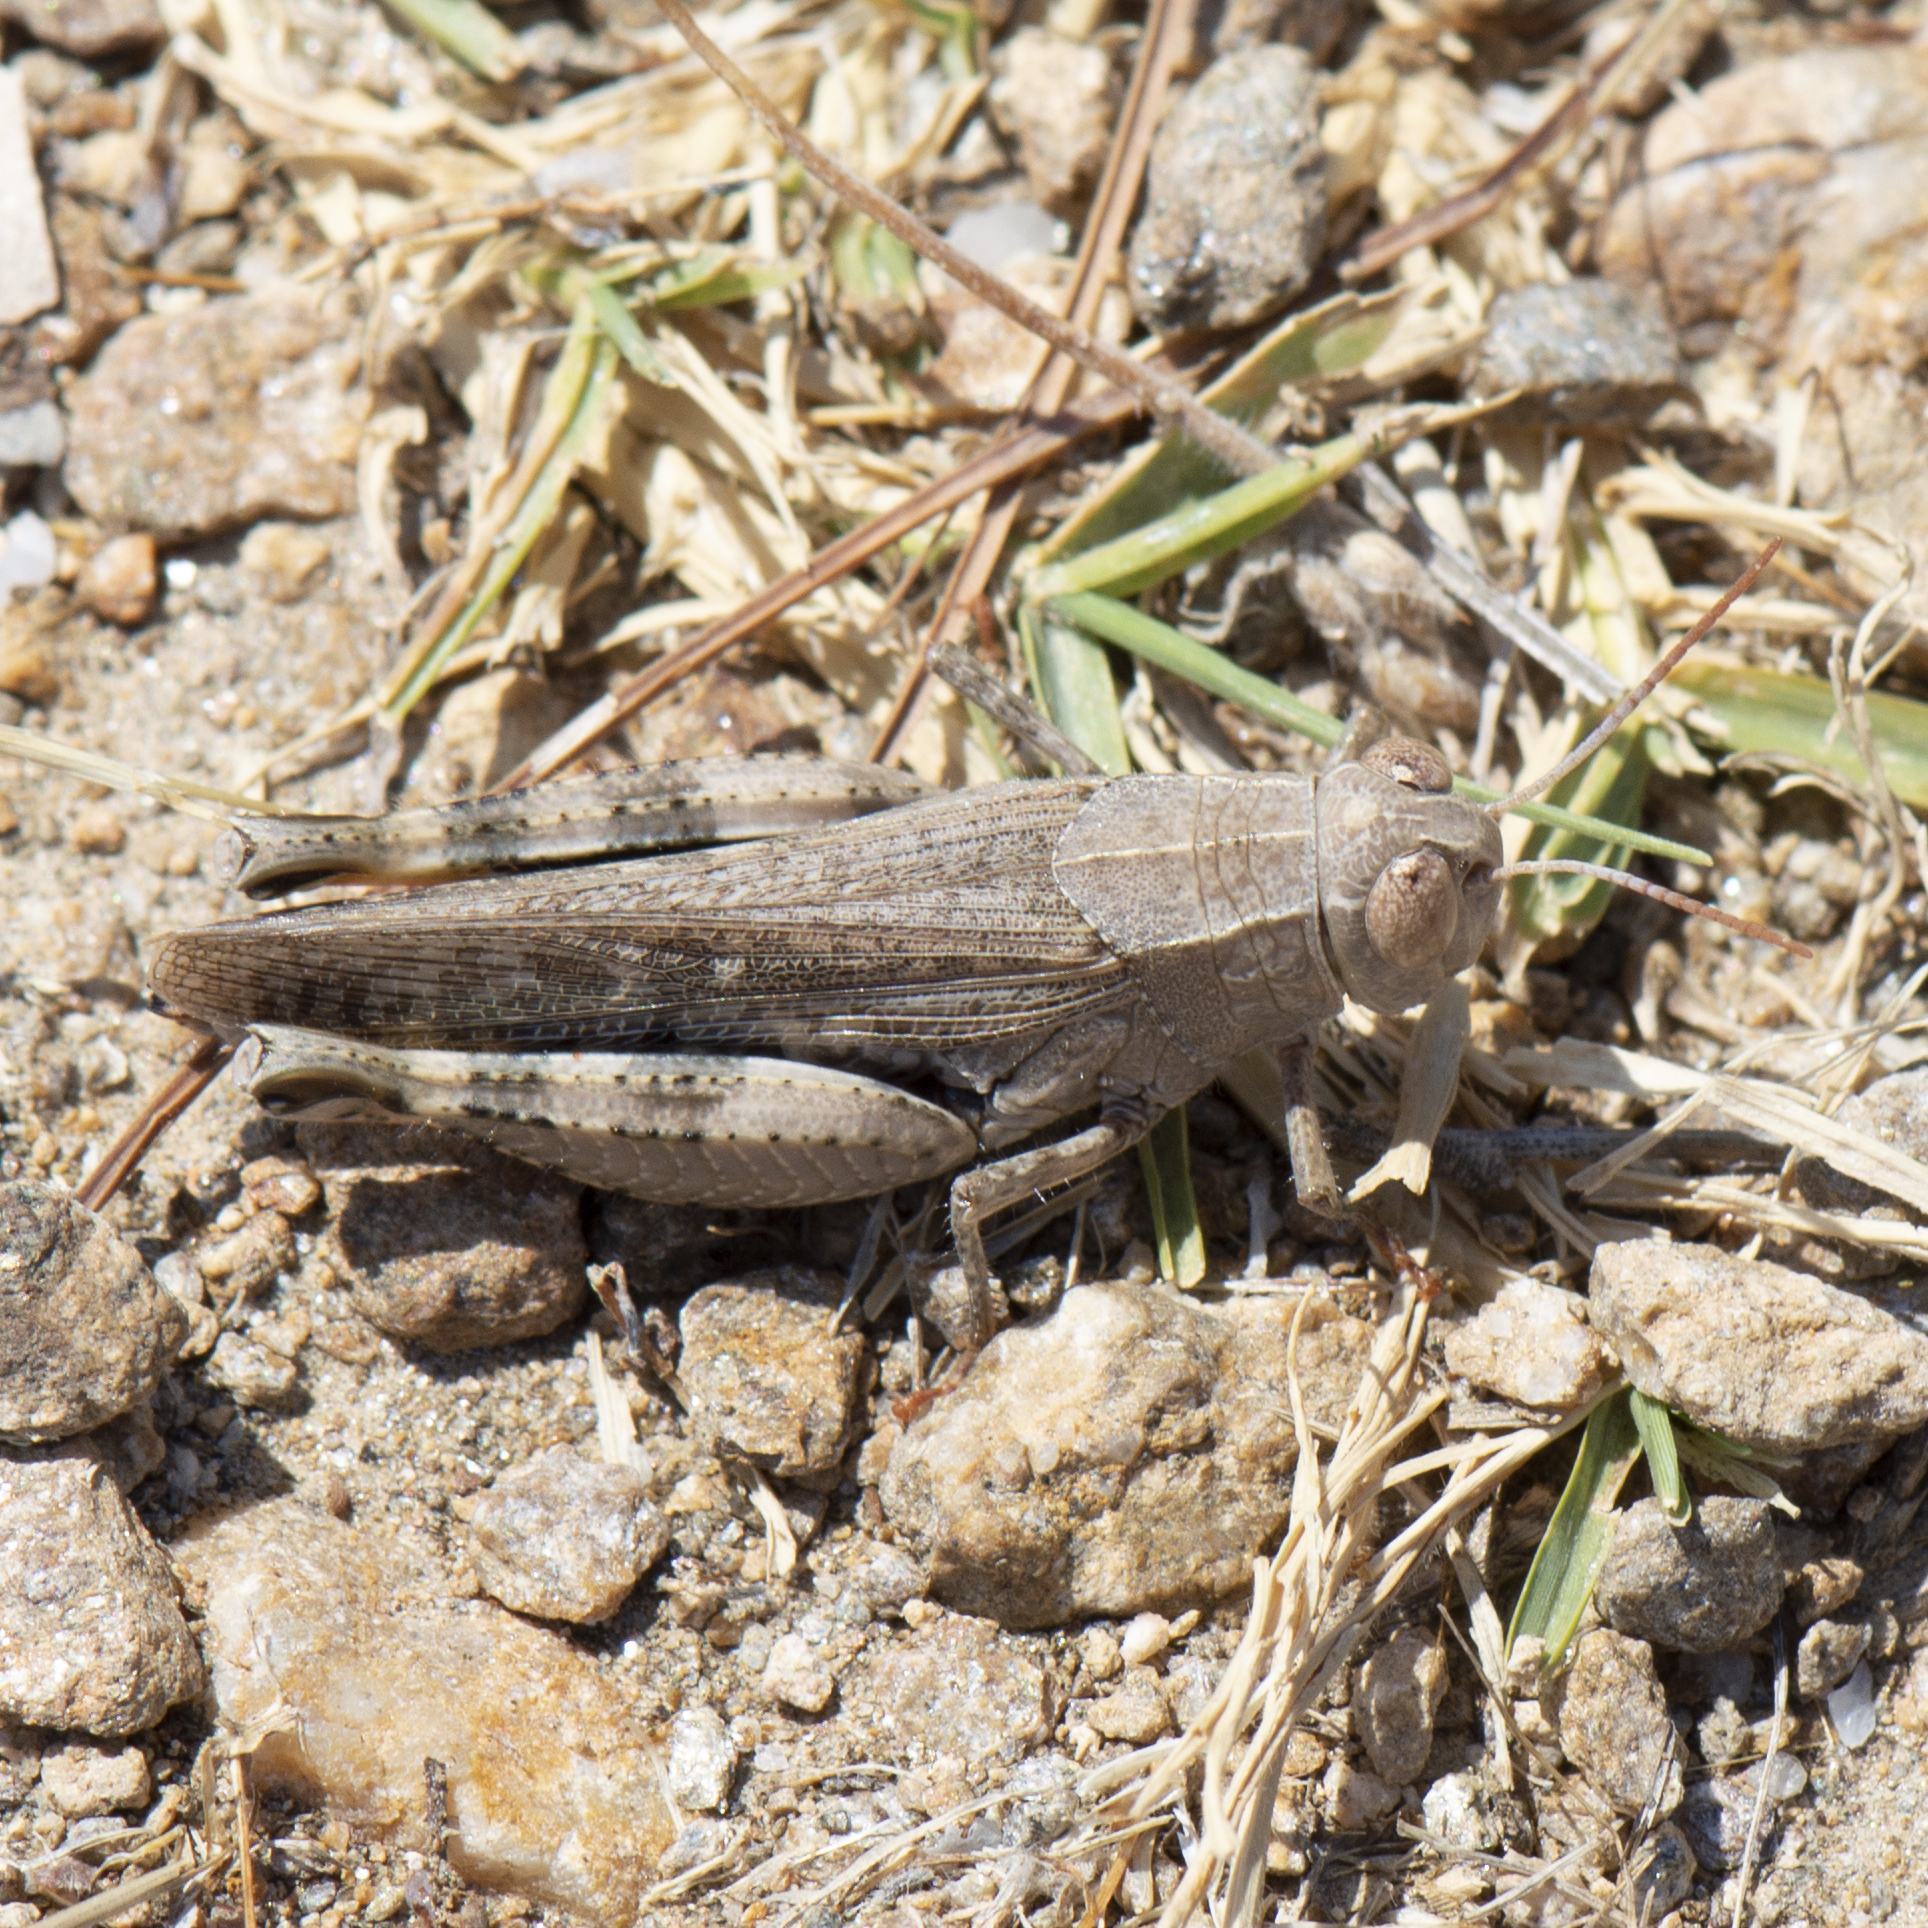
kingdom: Animalia
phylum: Arthropoda
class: Insecta
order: Orthoptera
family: Acrididae
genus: Calliptamus
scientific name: Calliptamus
